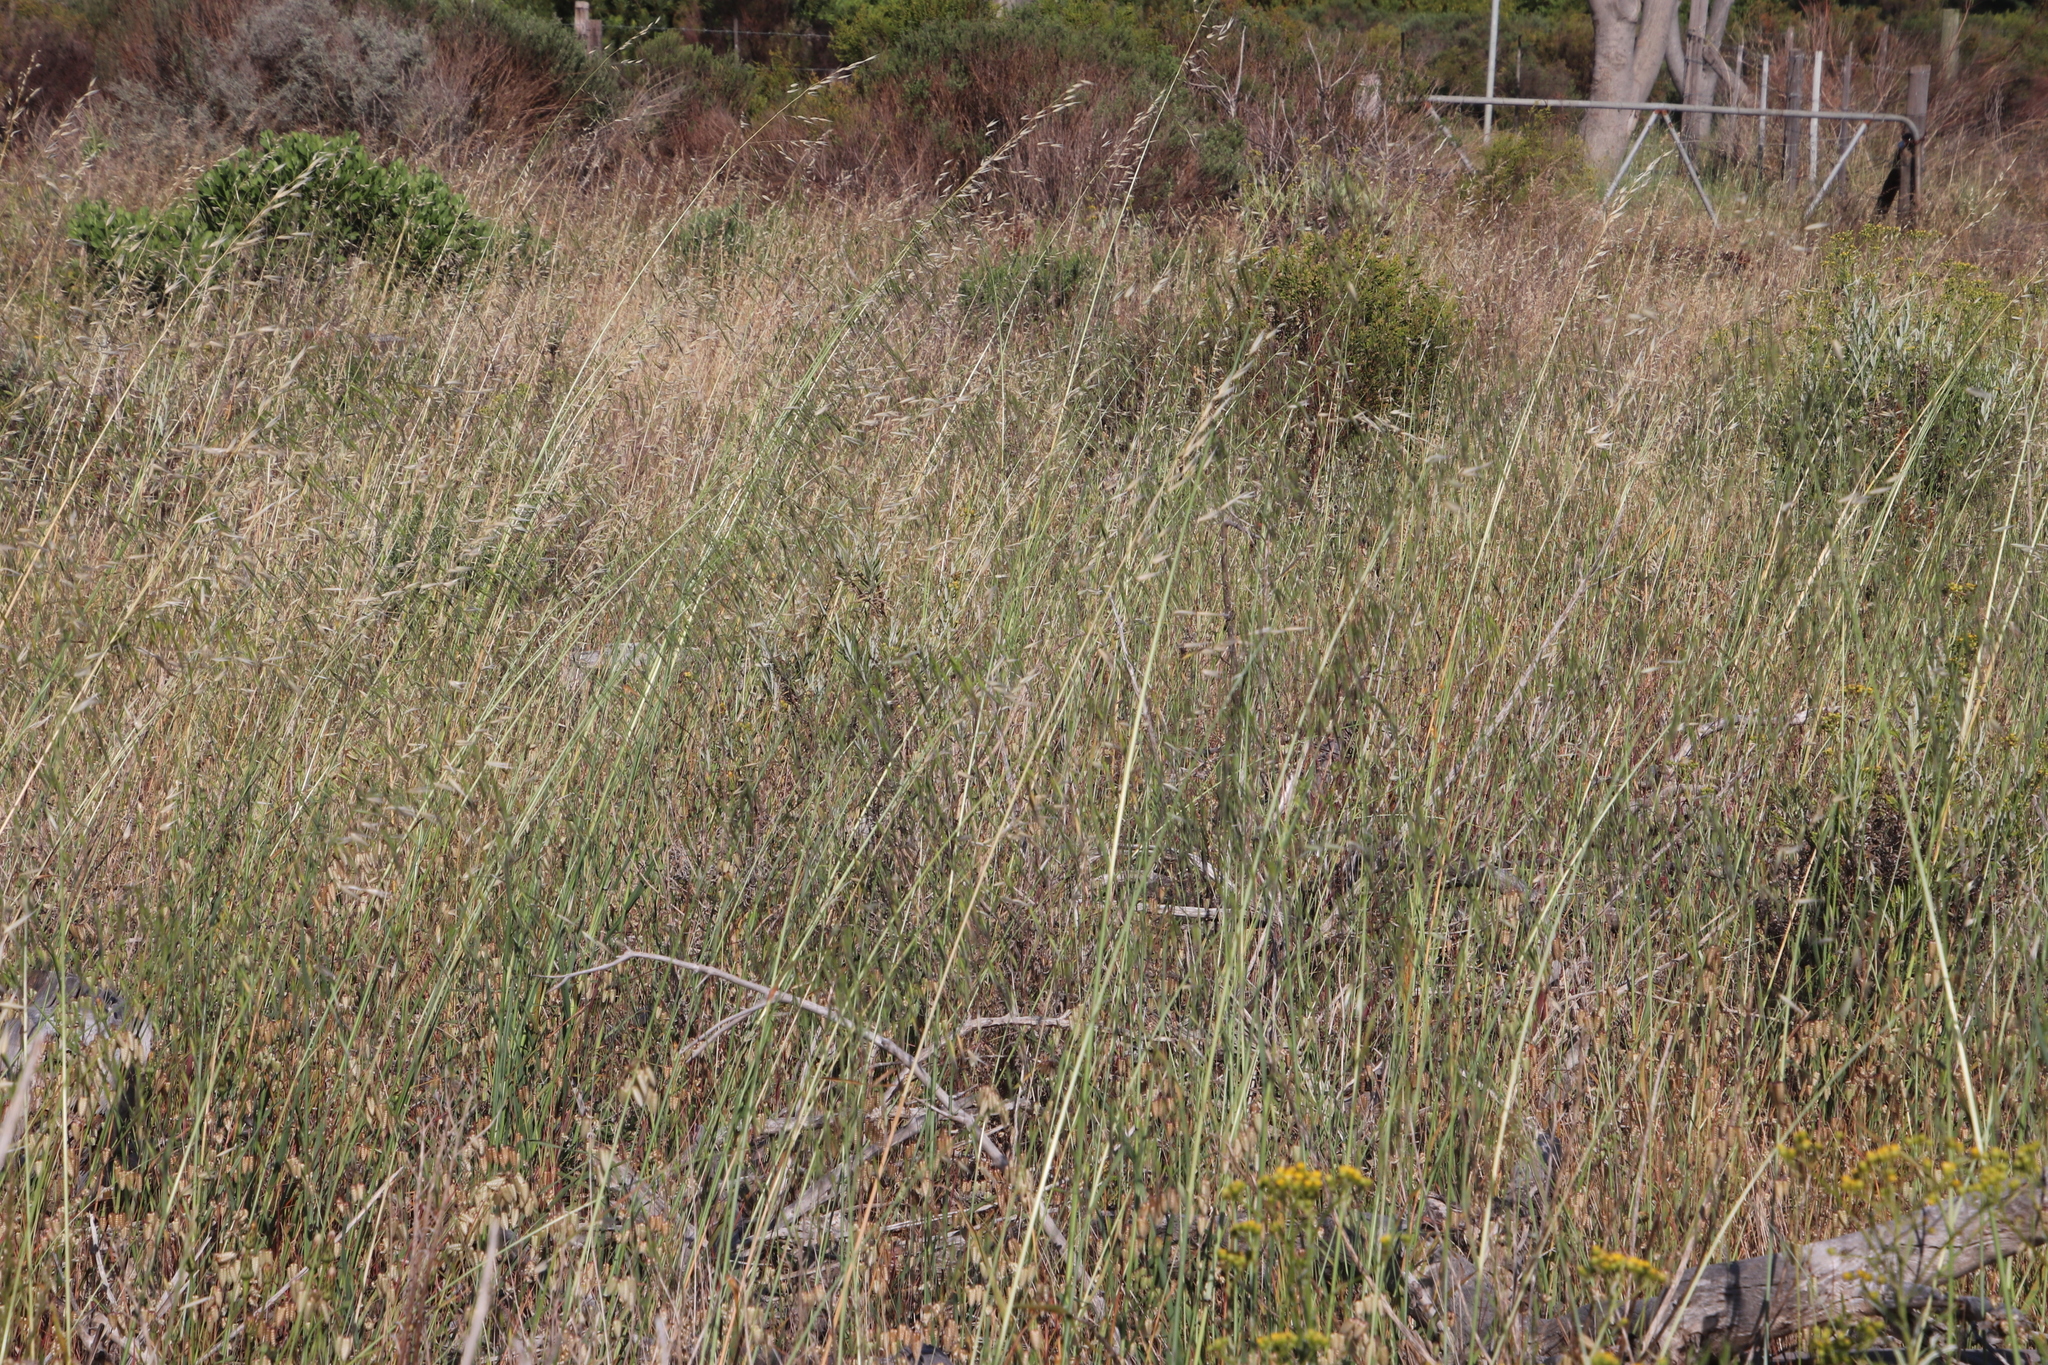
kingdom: Plantae
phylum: Tracheophyta
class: Liliopsida
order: Poales
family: Poaceae
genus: Avena
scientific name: Avena fatua
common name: Wild oat
